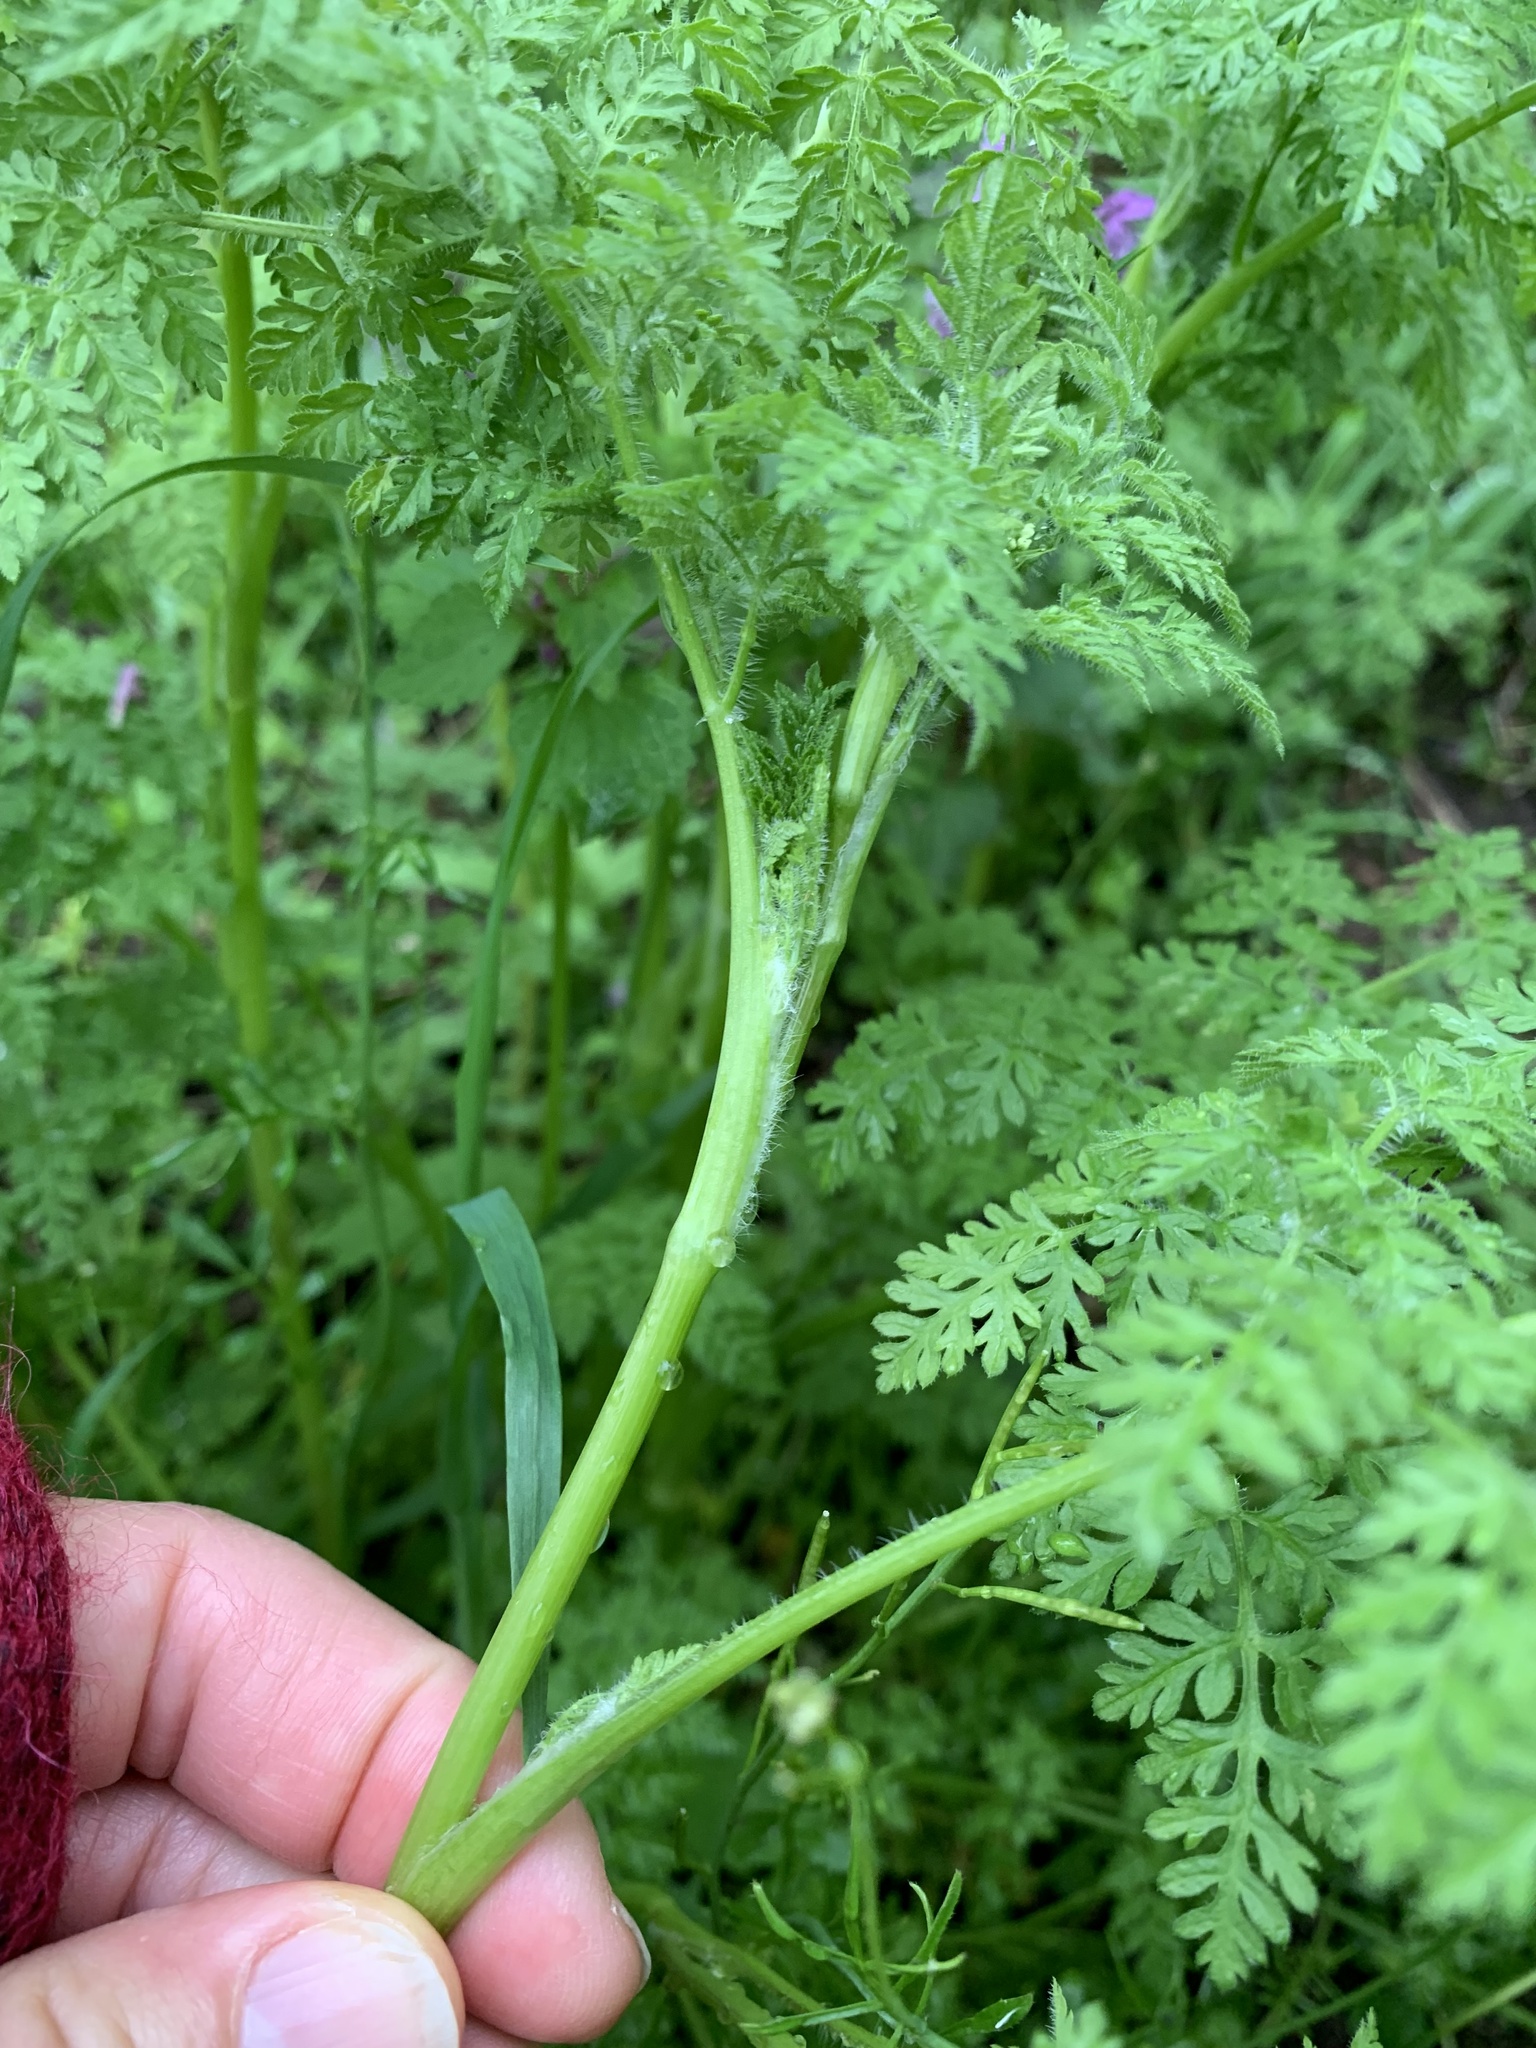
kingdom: Plantae
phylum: Tracheophyta
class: Magnoliopsida
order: Apiales
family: Apiaceae
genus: Anthriscus
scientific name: Anthriscus caucalis
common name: Bur chervil
